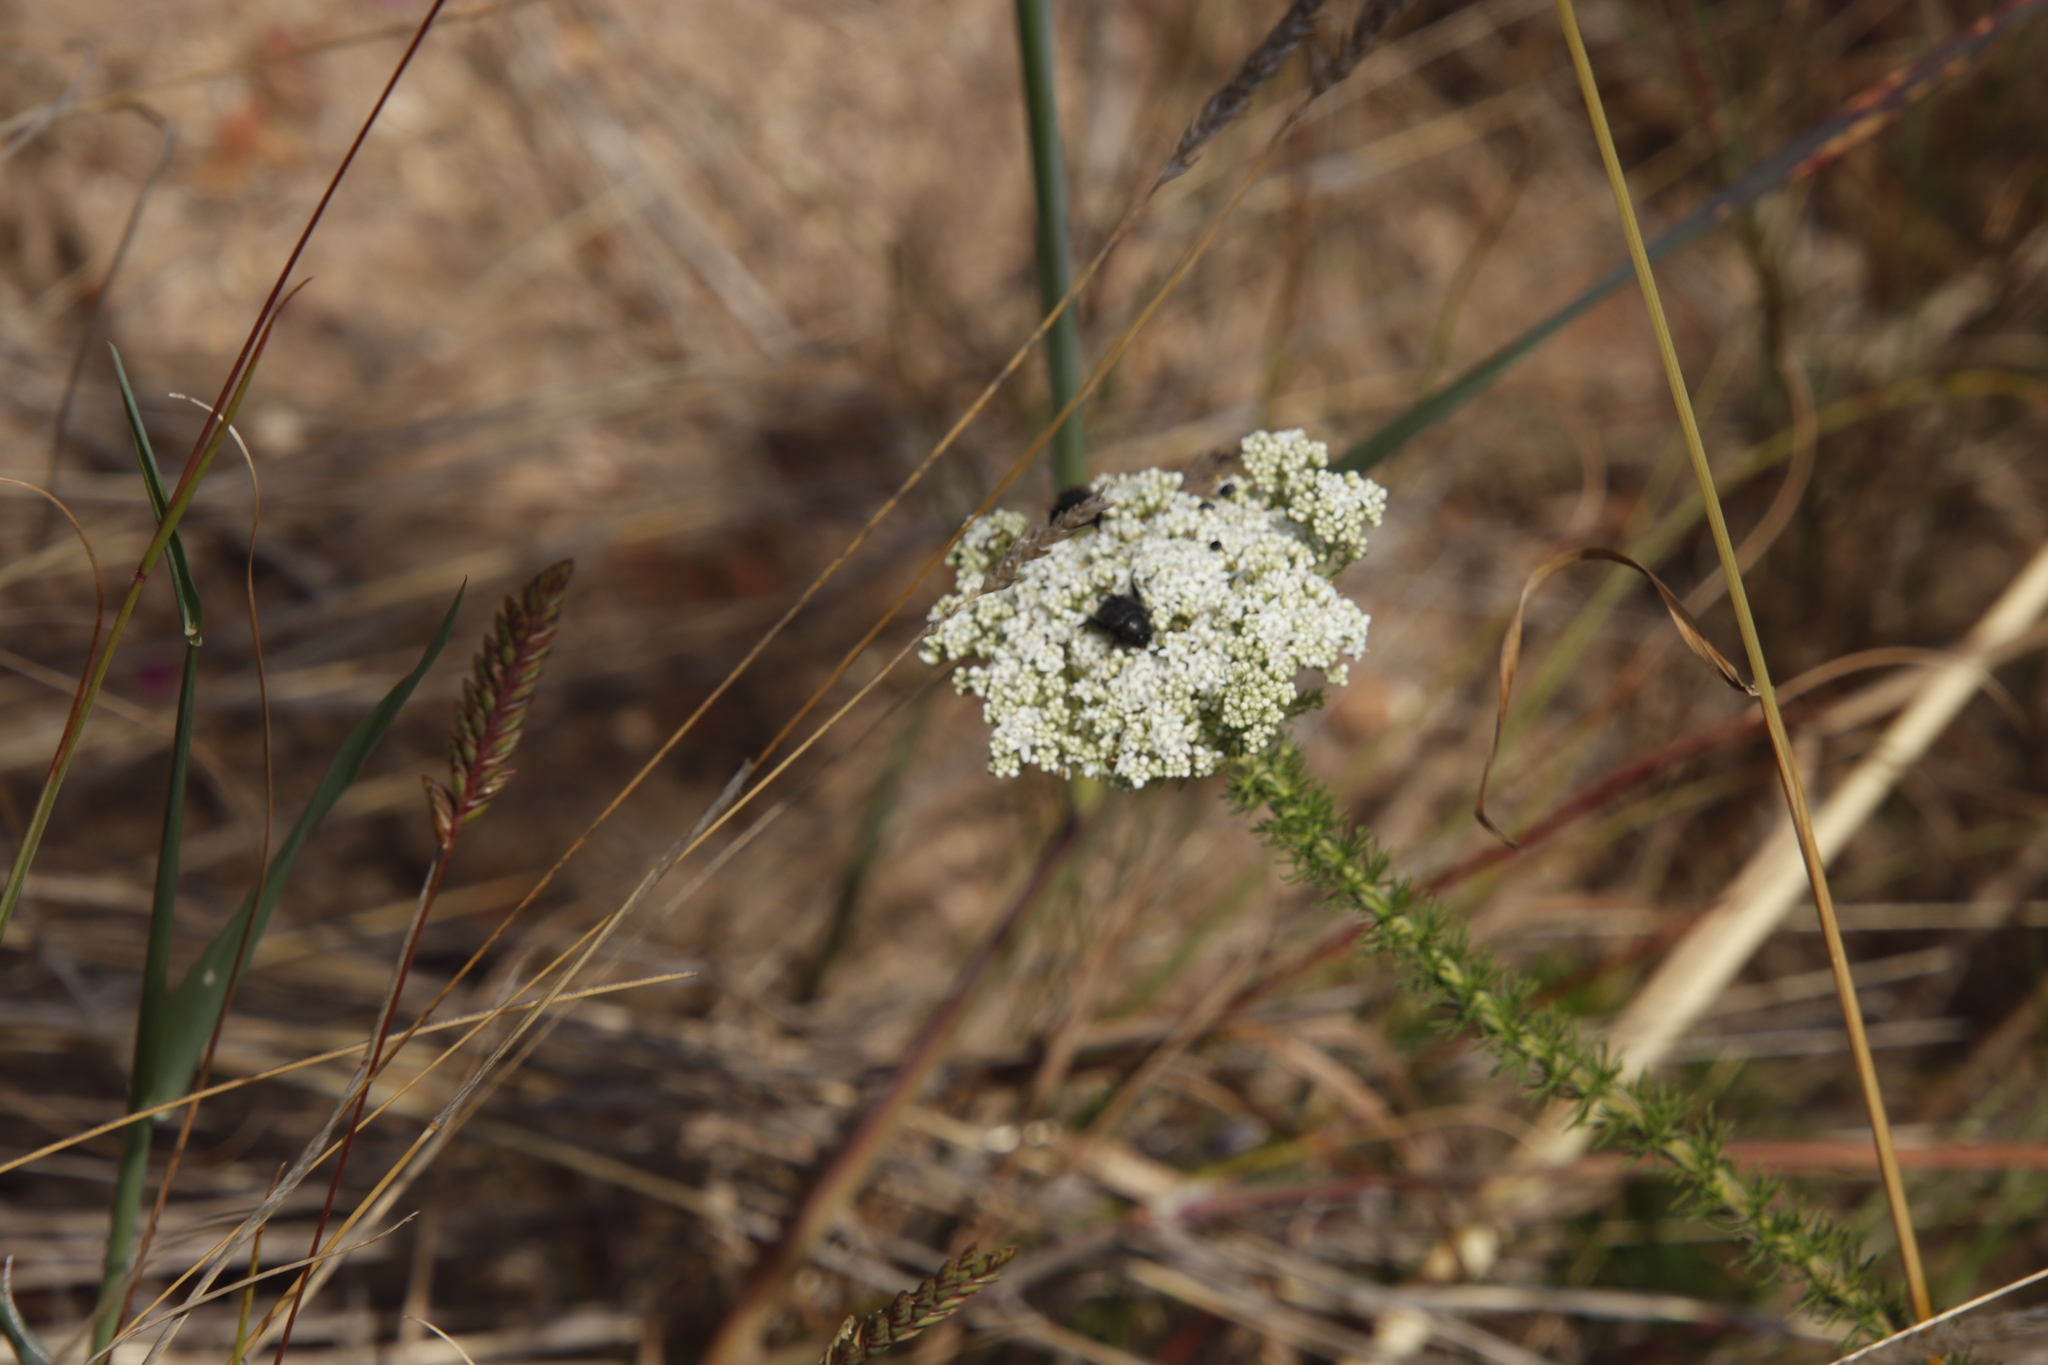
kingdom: Plantae
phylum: Tracheophyta
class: Magnoliopsida
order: Lamiales
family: Scrophulariaceae
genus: Selago
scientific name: Selago corymbosa
